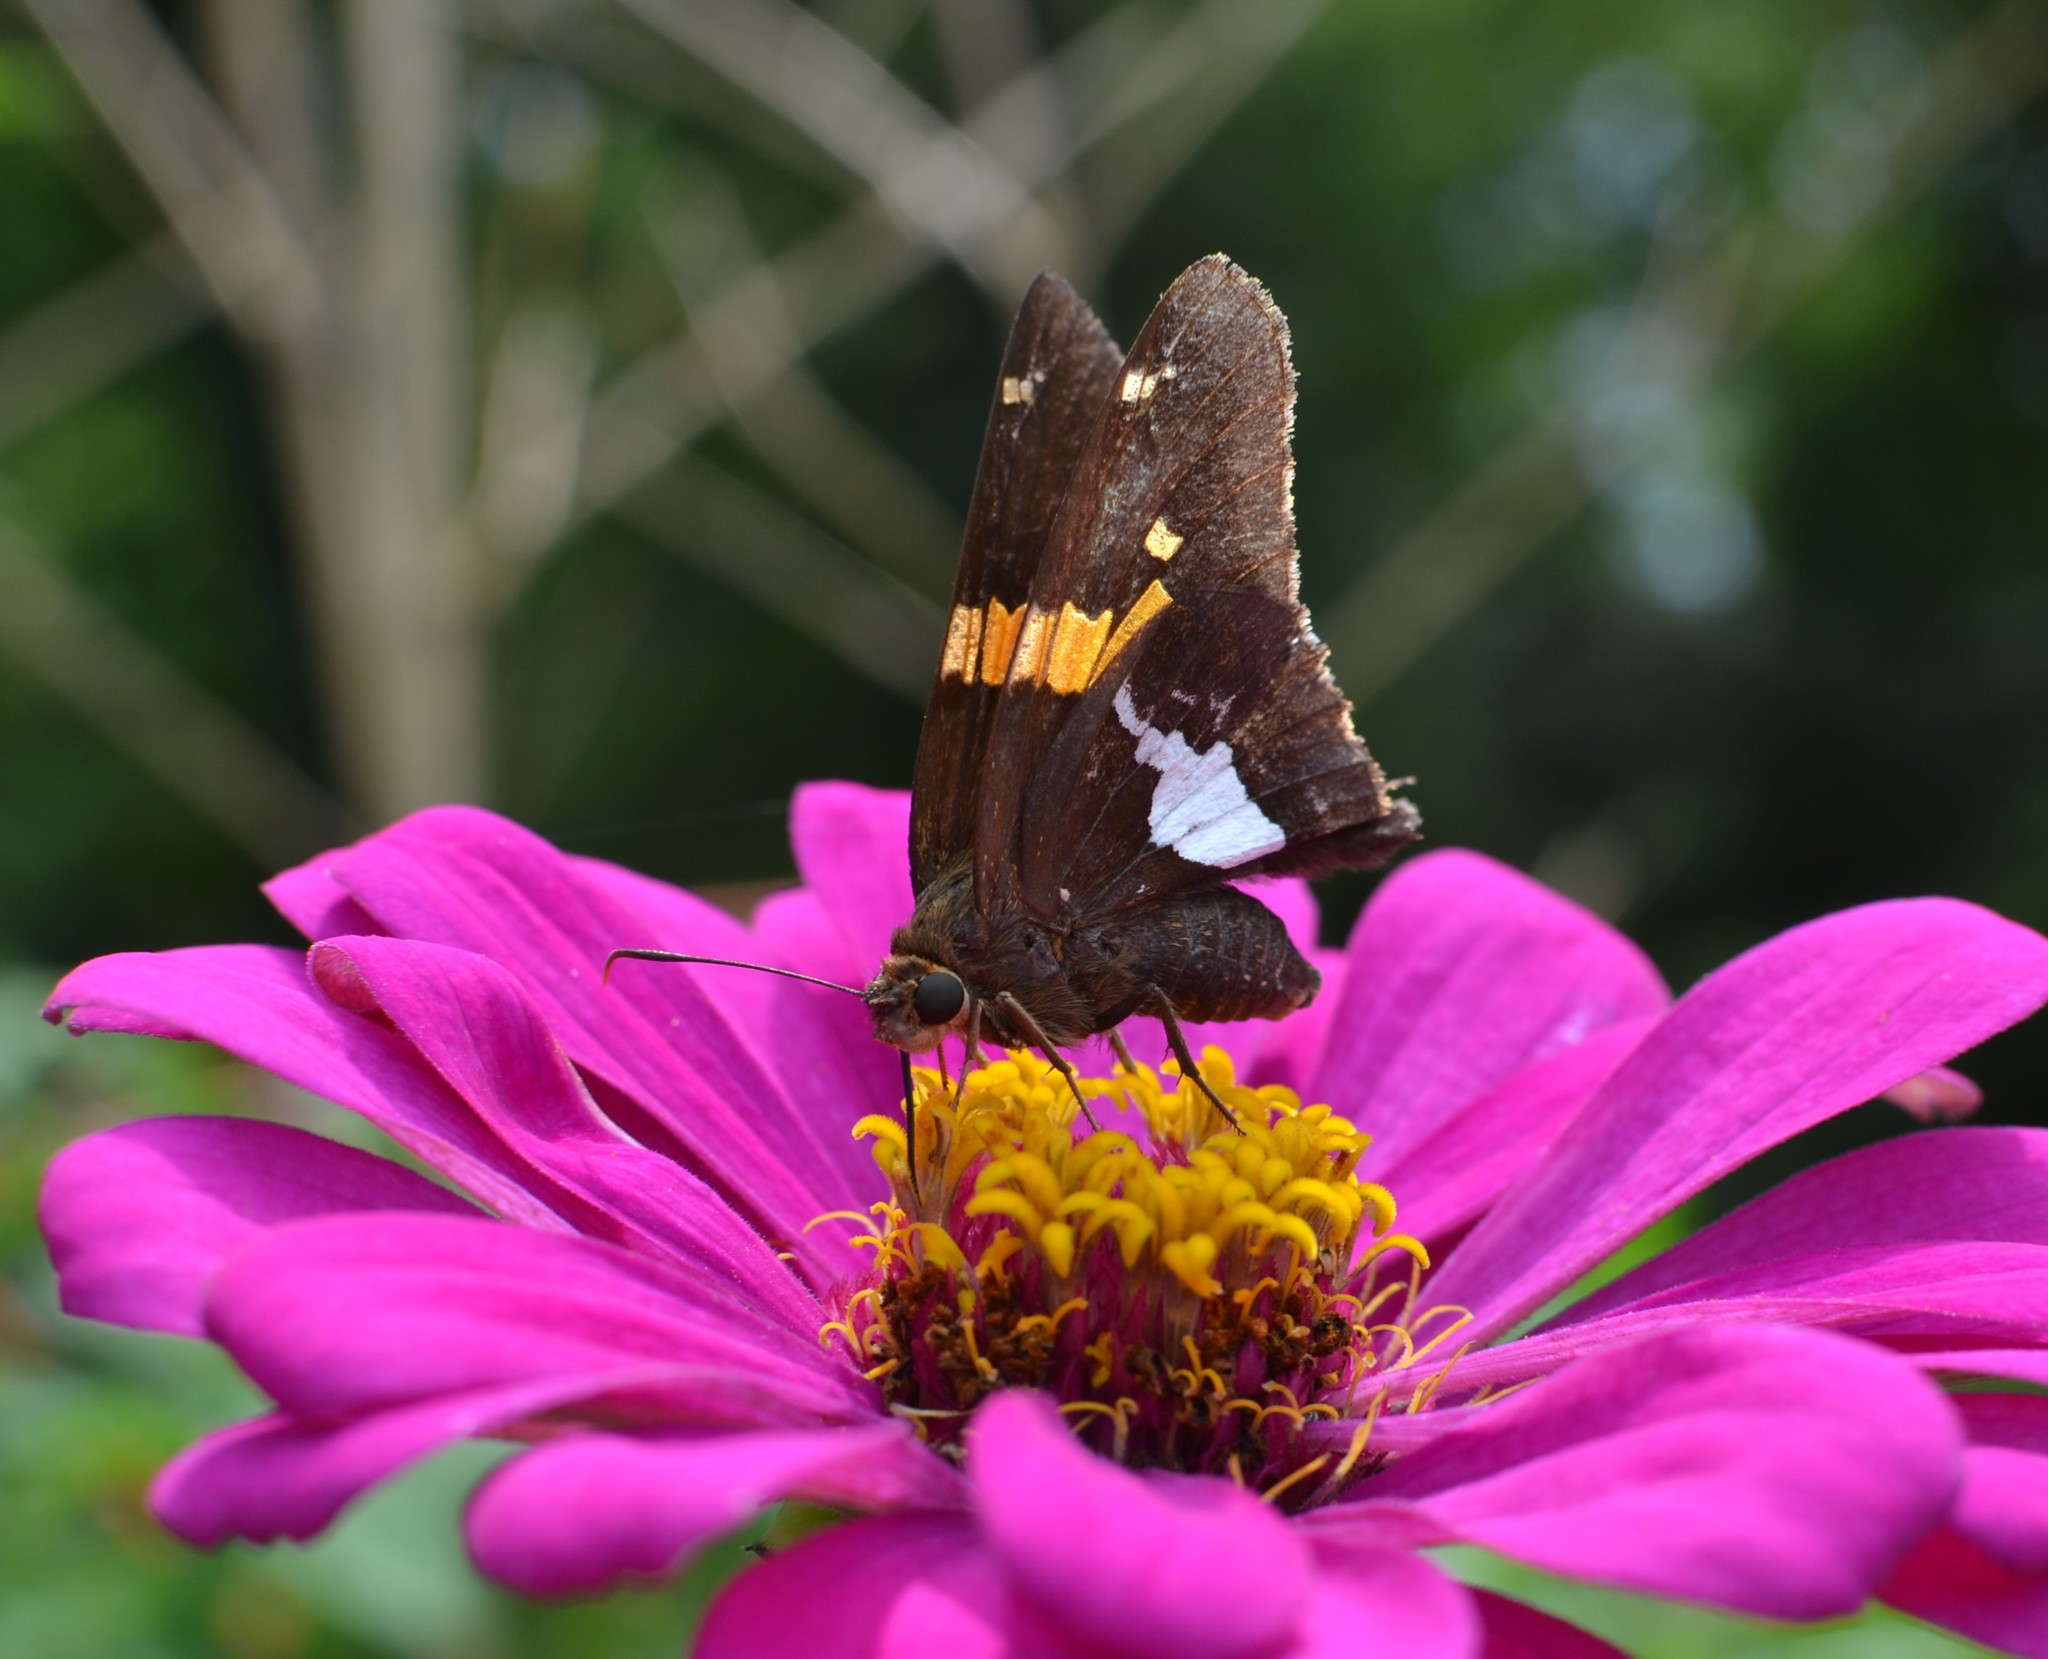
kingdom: Animalia
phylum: Arthropoda
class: Insecta
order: Lepidoptera
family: Hesperiidae
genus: Epargyreus
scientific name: Epargyreus clarus
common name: Silver-spotted skipper
